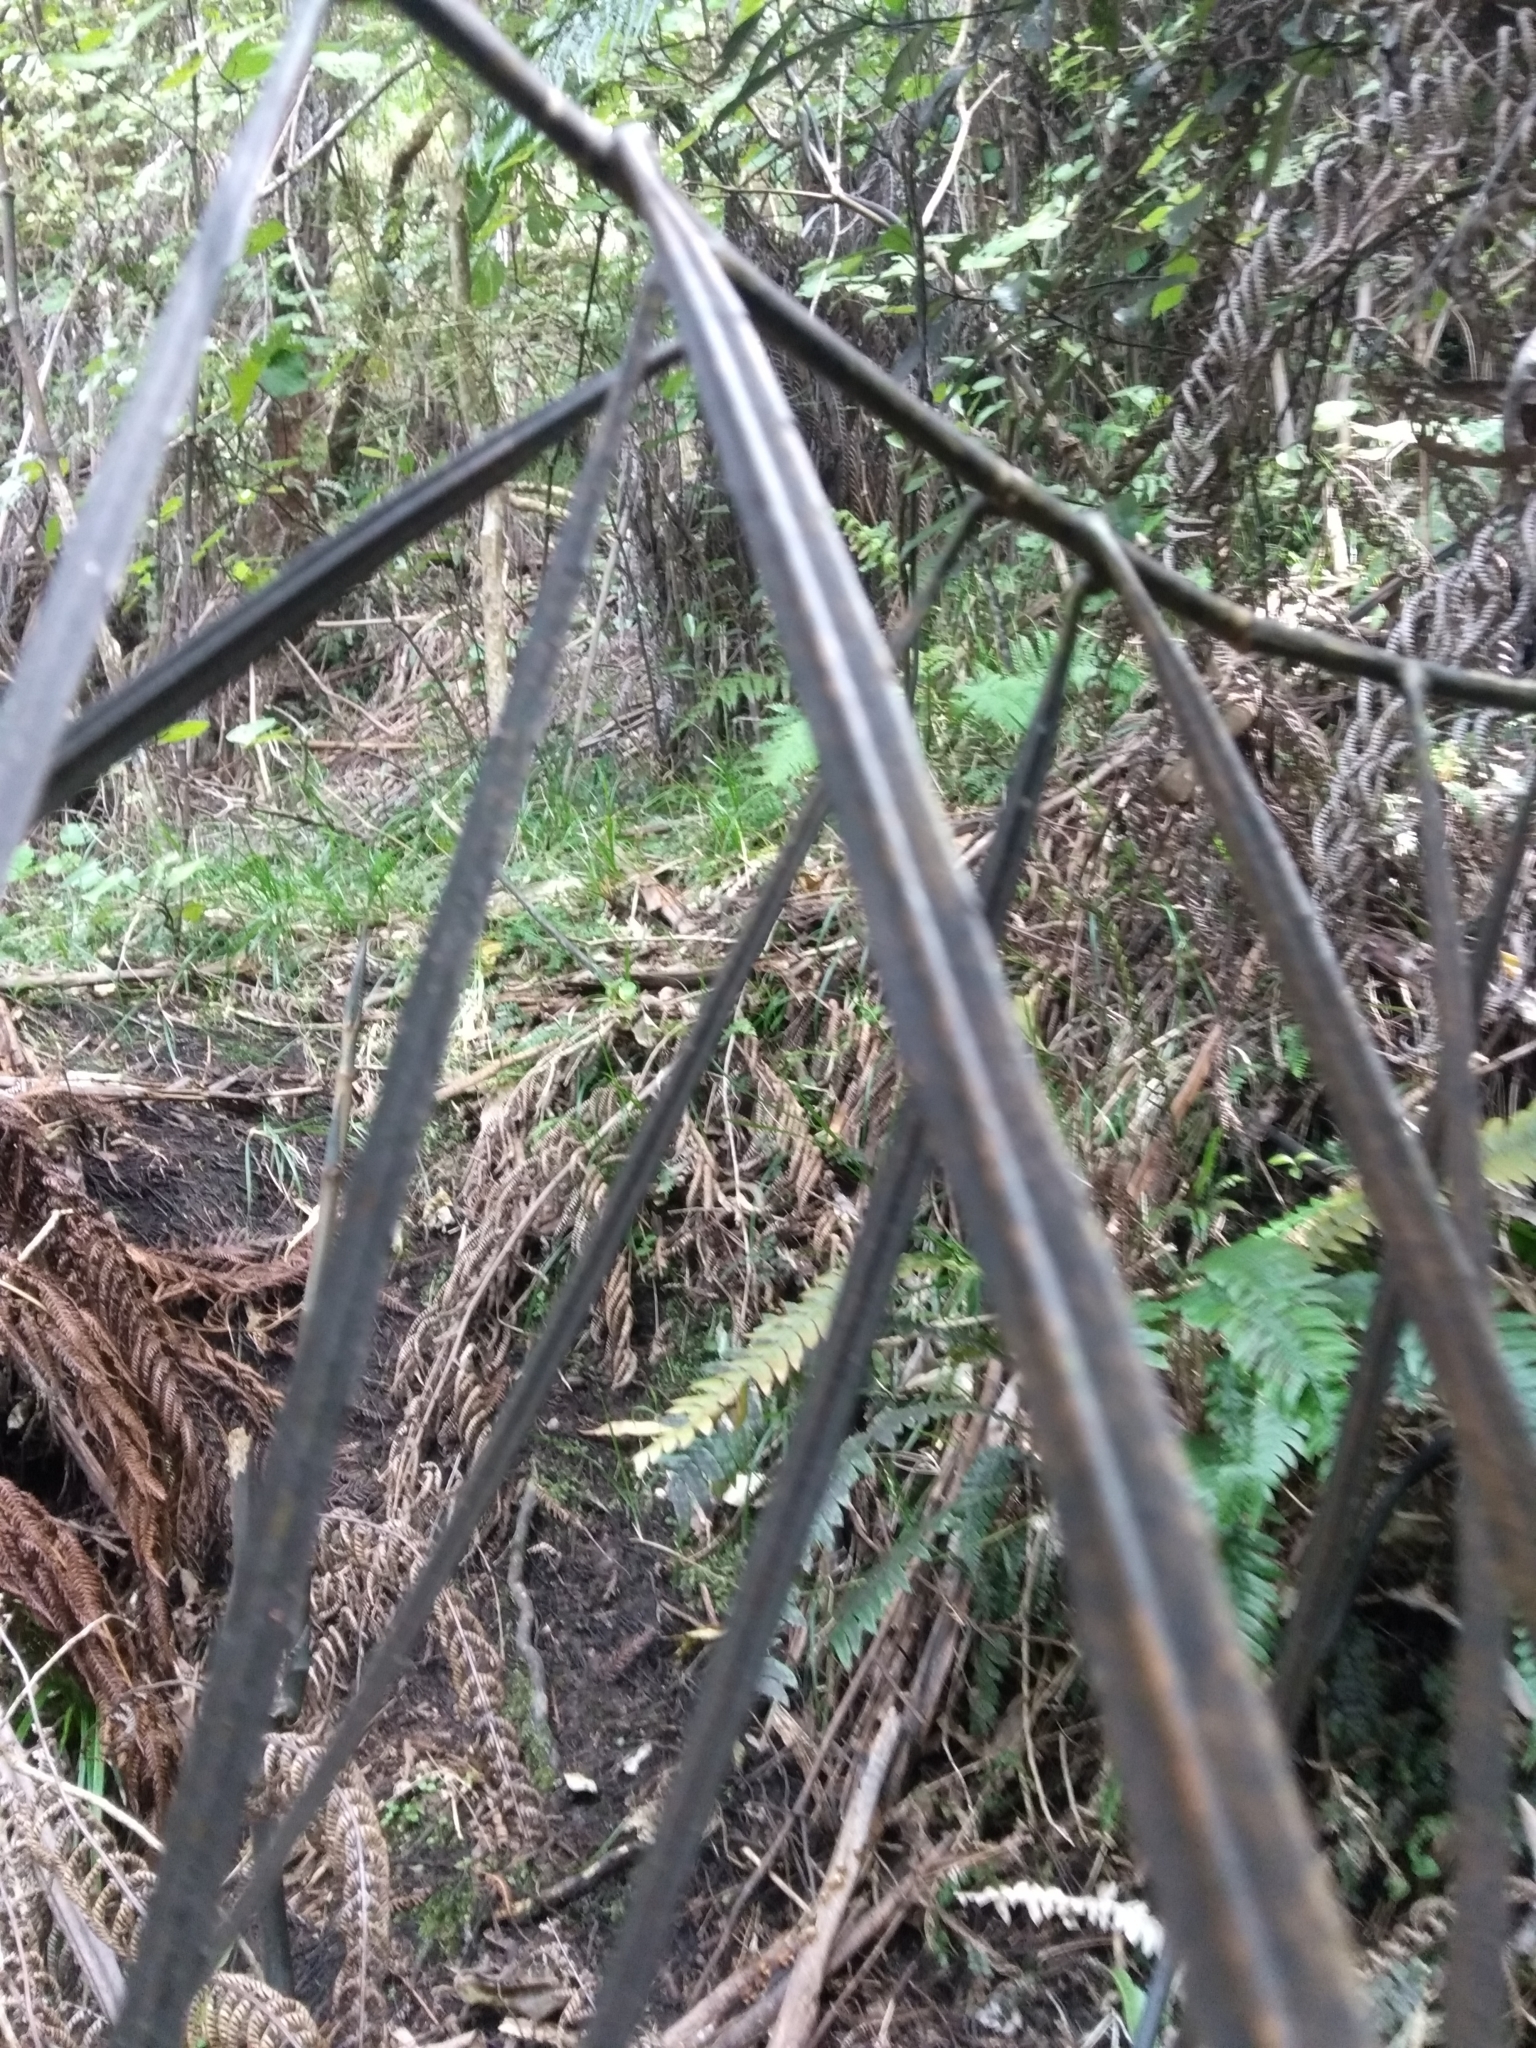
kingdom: Plantae
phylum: Tracheophyta
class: Magnoliopsida
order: Apiales
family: Araliaceae
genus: Pseudopanax
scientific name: Pseudopanax crassifolius
